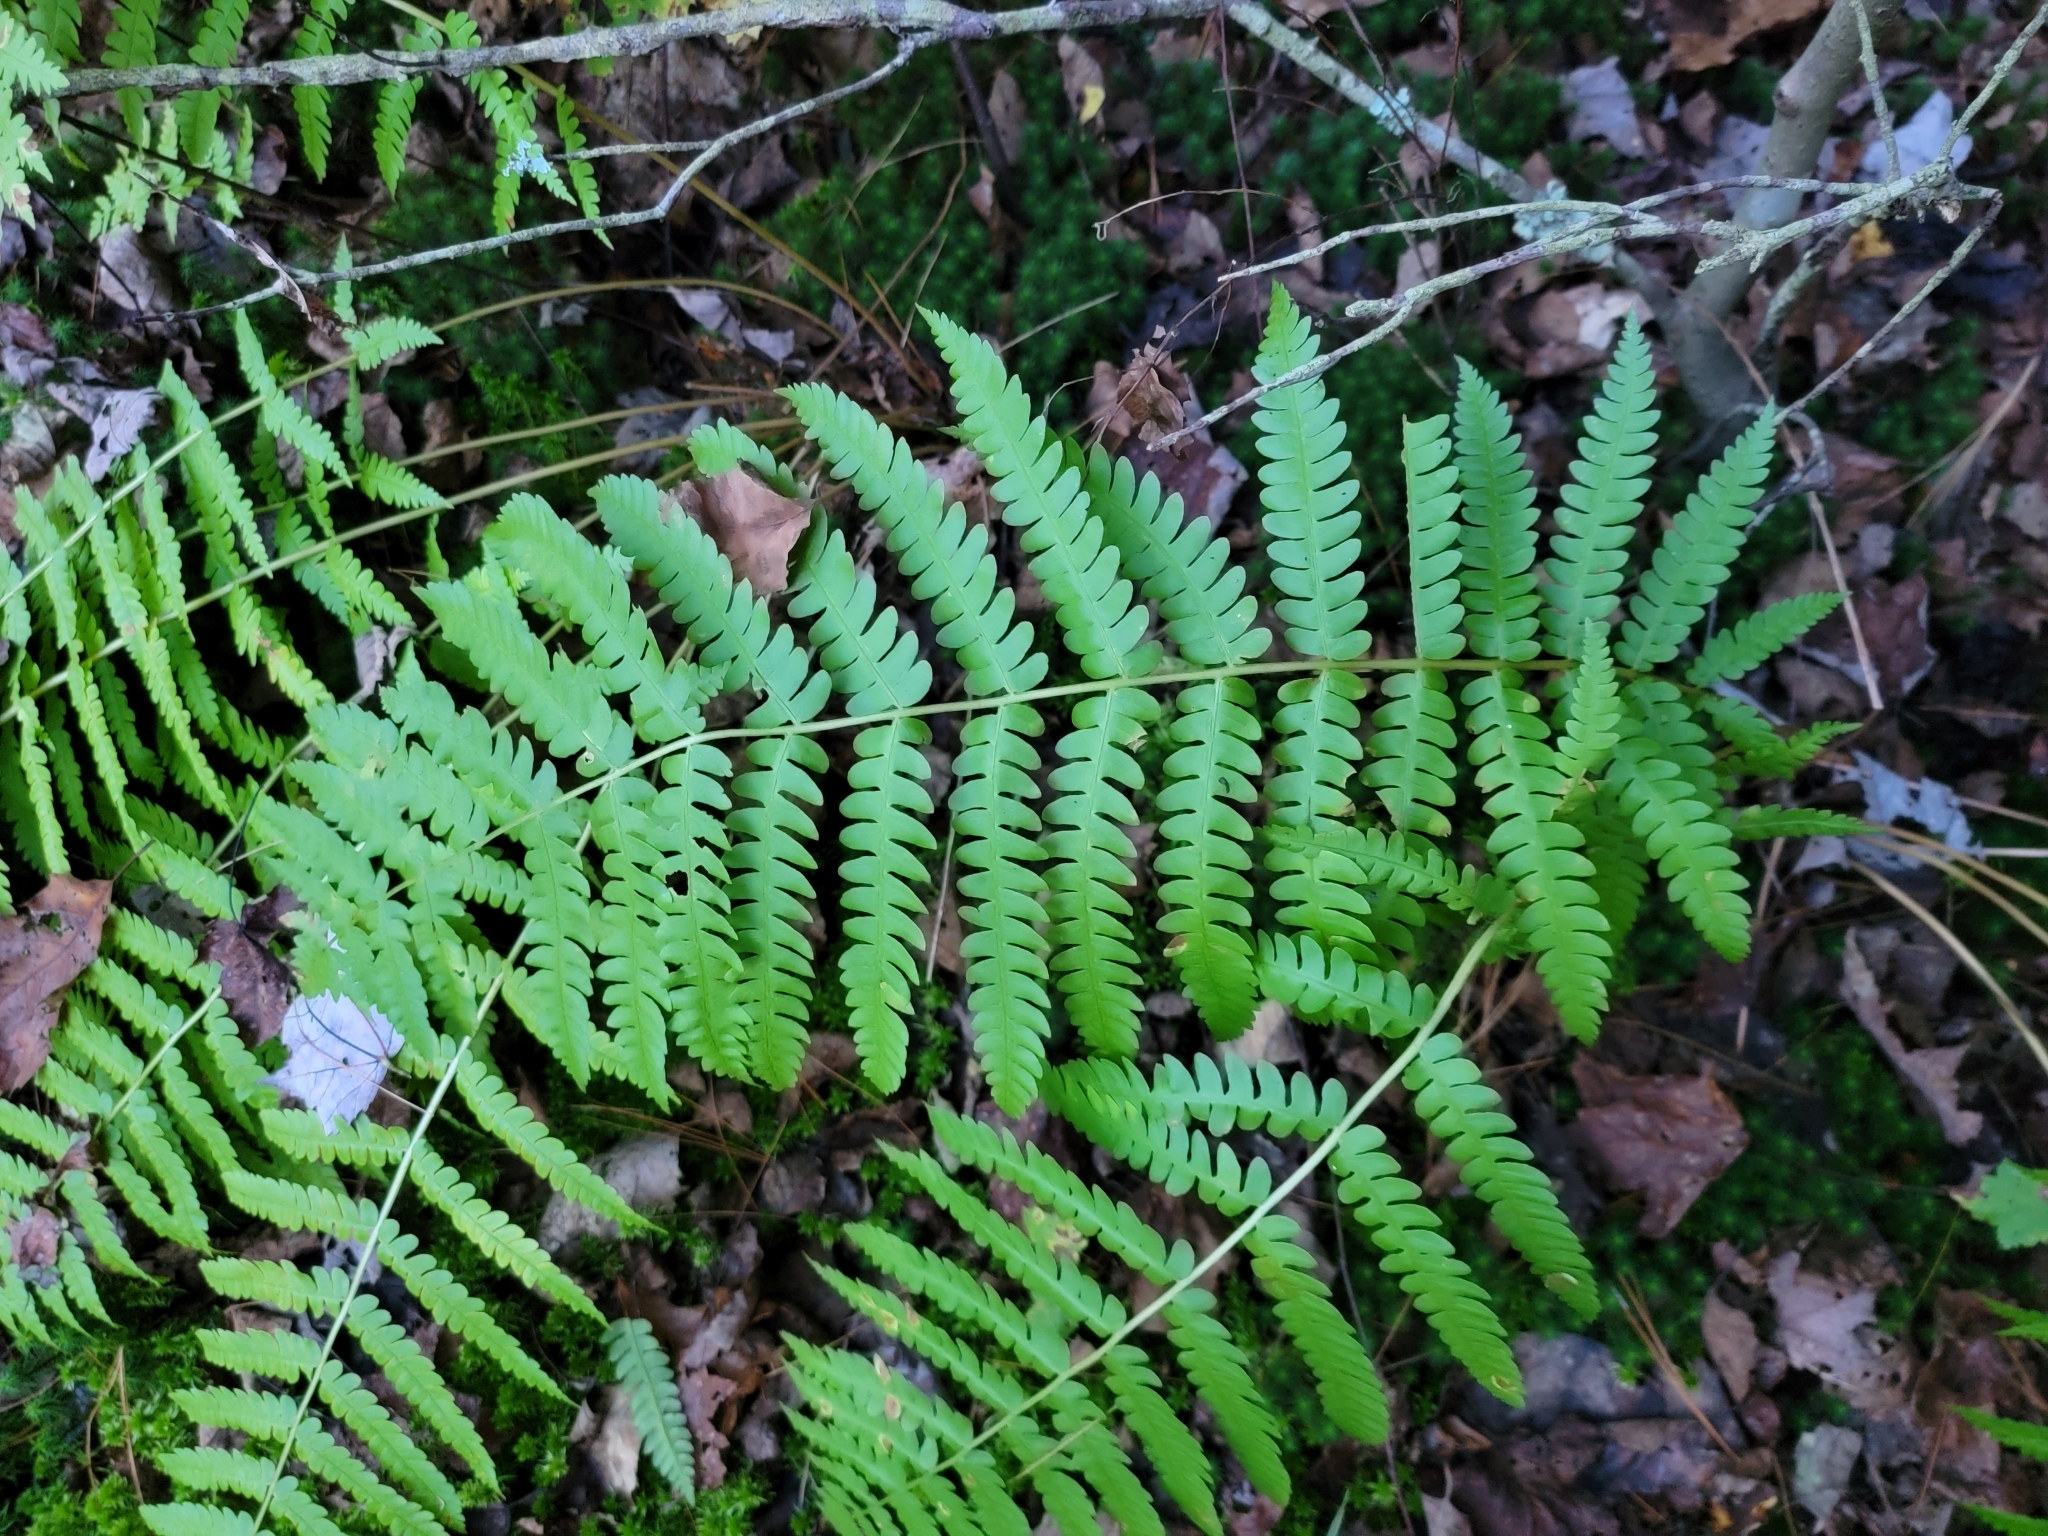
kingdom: Plantae
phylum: Tracheophyta
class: Polypodiopsida
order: Osmundales
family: Osmundaceae
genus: Osmundastrum
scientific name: Osmundastrum cinnamomeum
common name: Cinnamon fern
